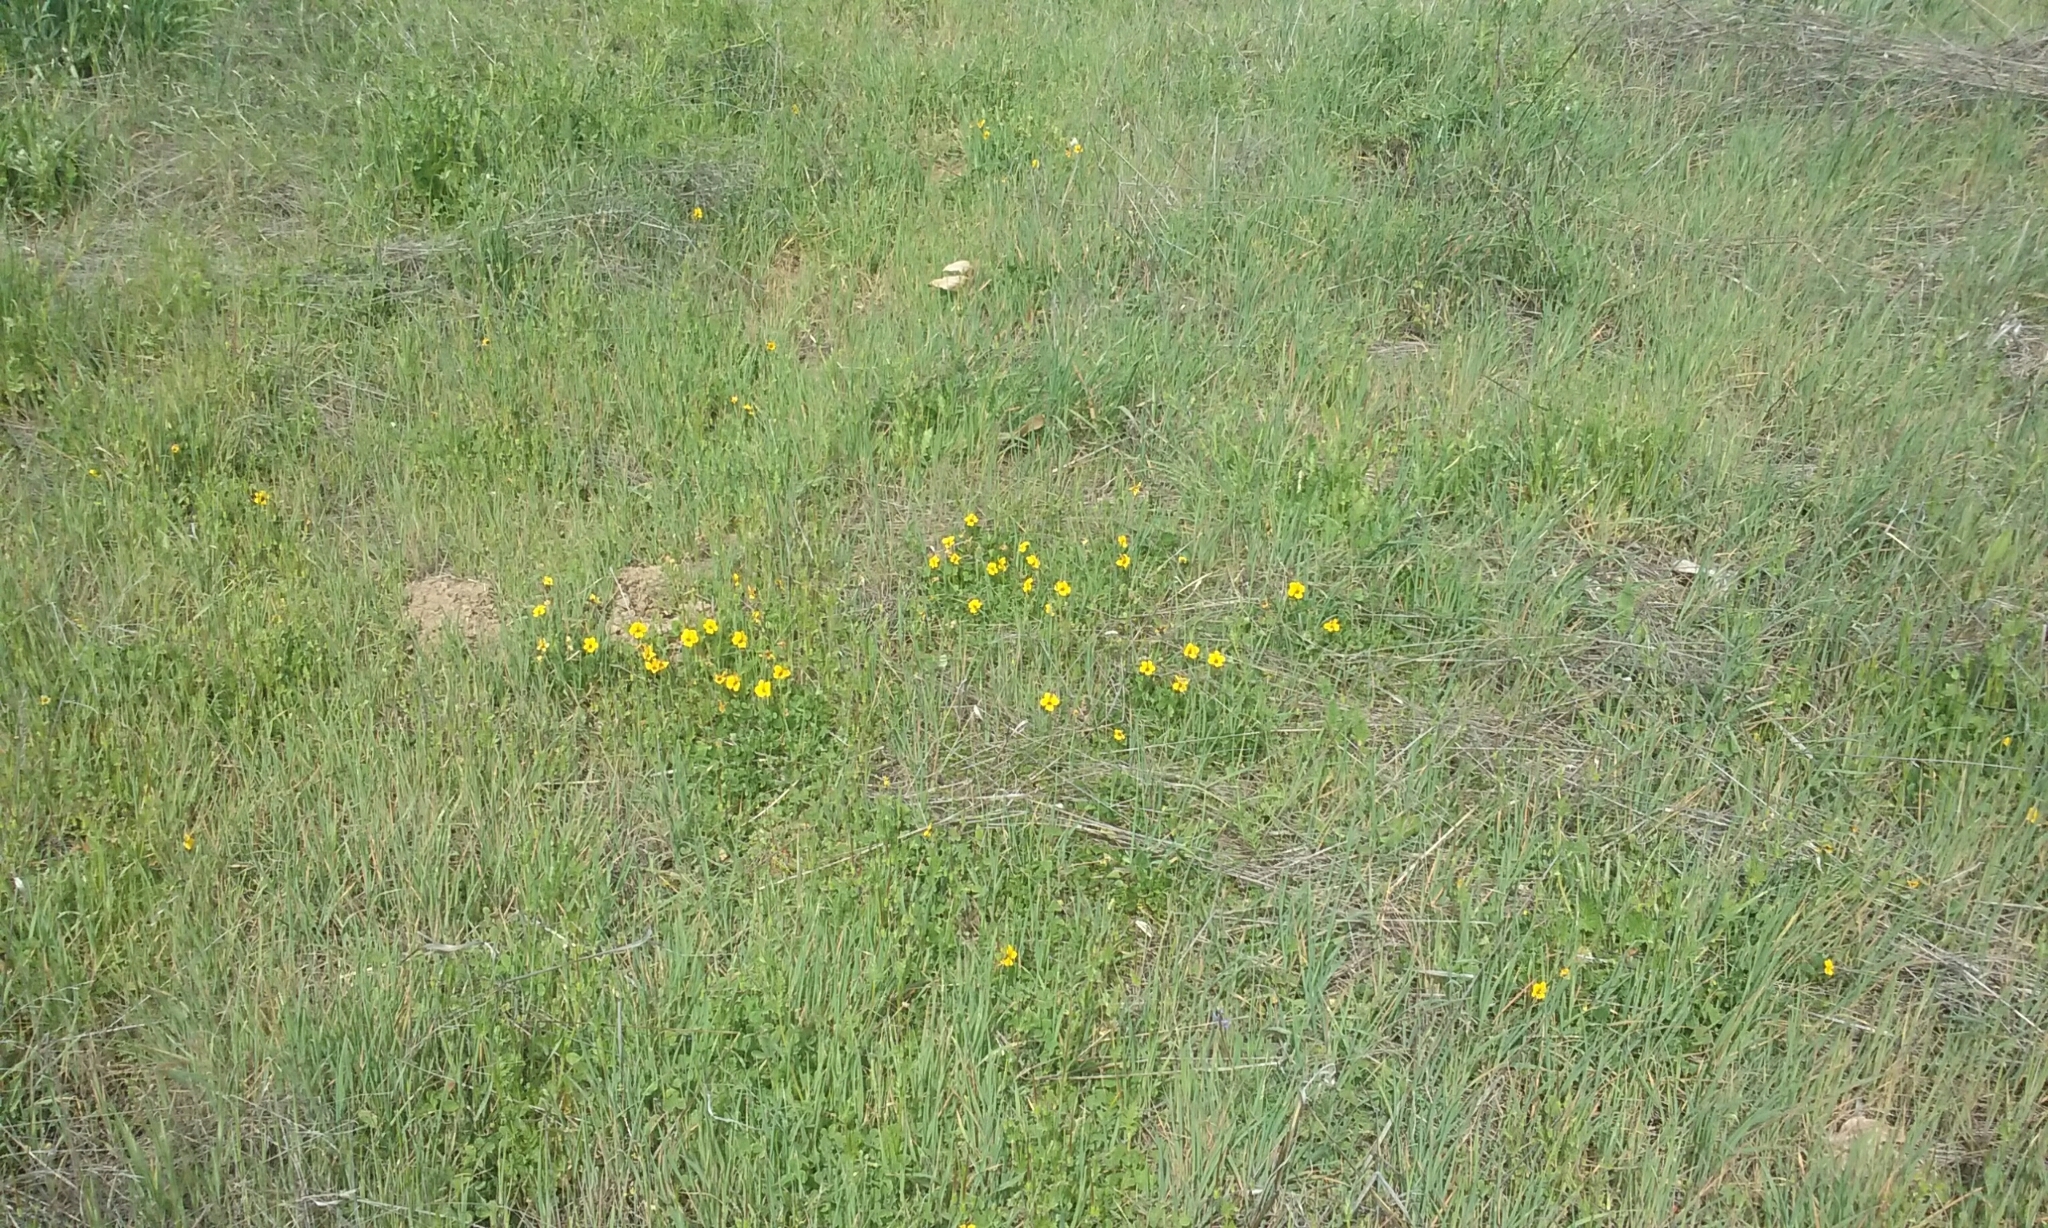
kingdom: Plantae
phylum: Tracheophyta
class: Magnoliopsida
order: Malpighiales
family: Violaceae
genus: Viola
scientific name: Viola pedunculata
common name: California golden violet
